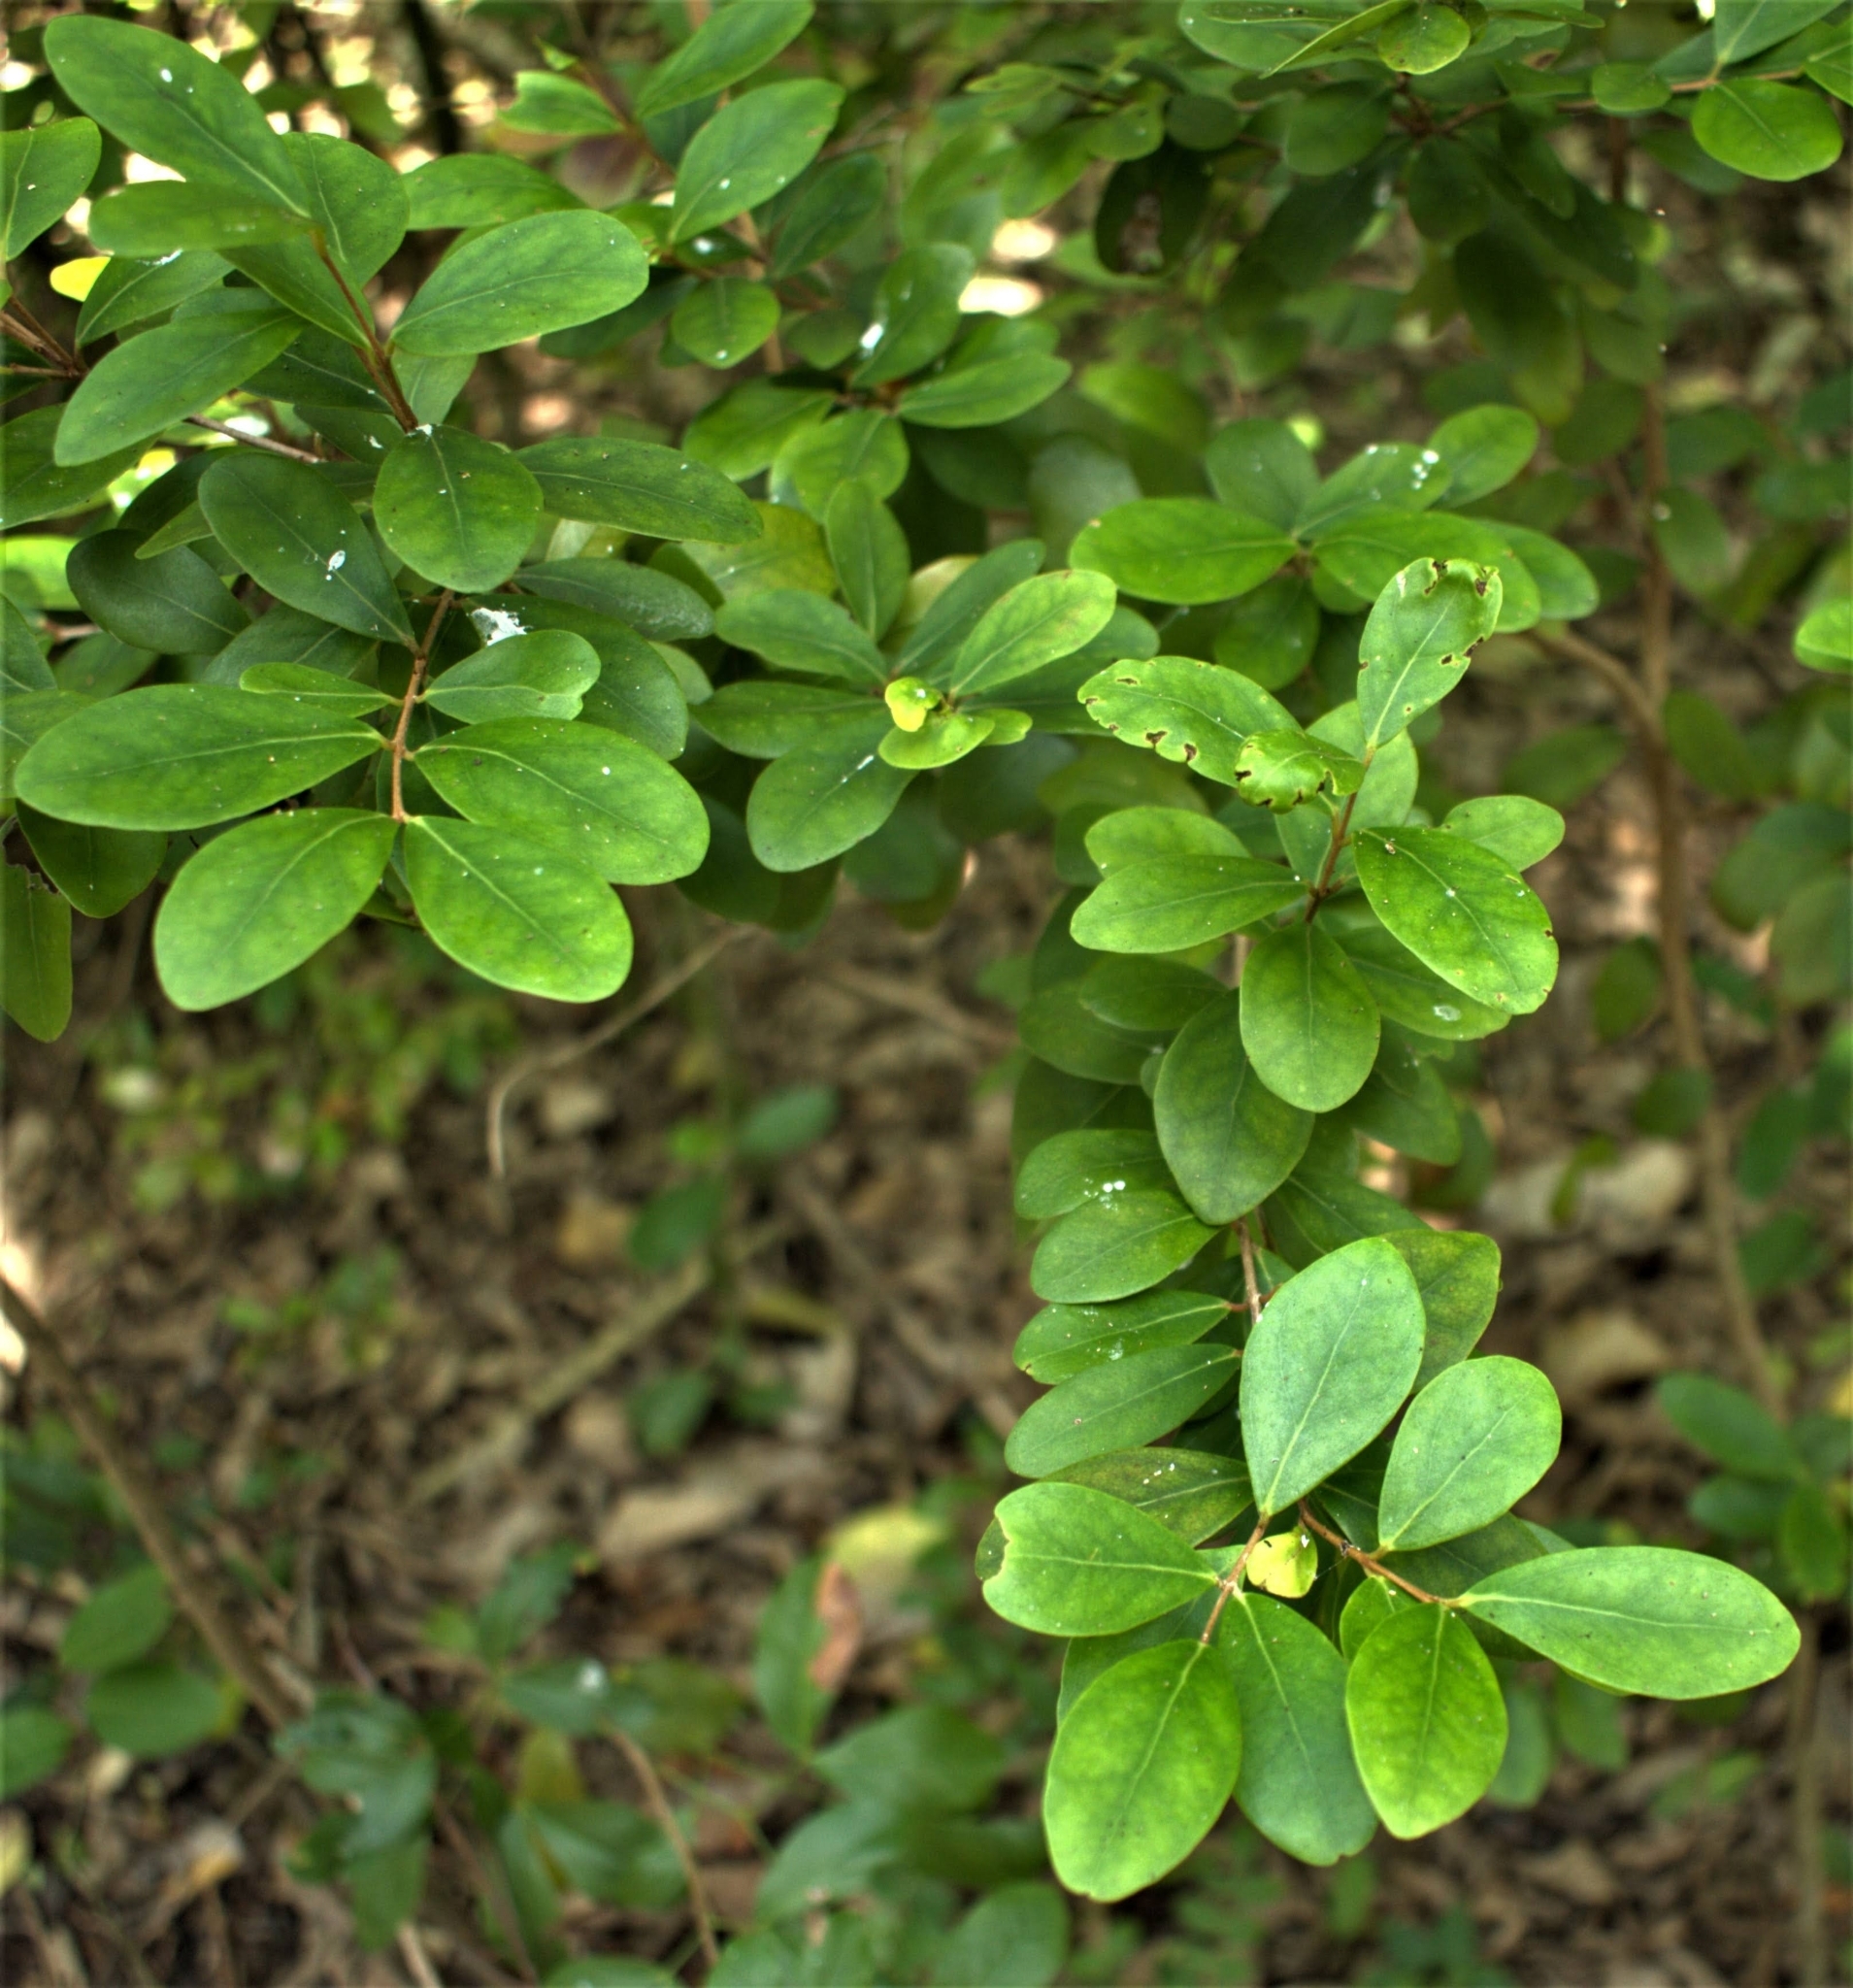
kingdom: Plantae
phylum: Tracheophyta
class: Magnoliopsida
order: Myrtales
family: Myrtaceae
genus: Eugenia
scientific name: Eugenia foetida
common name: White wattling
